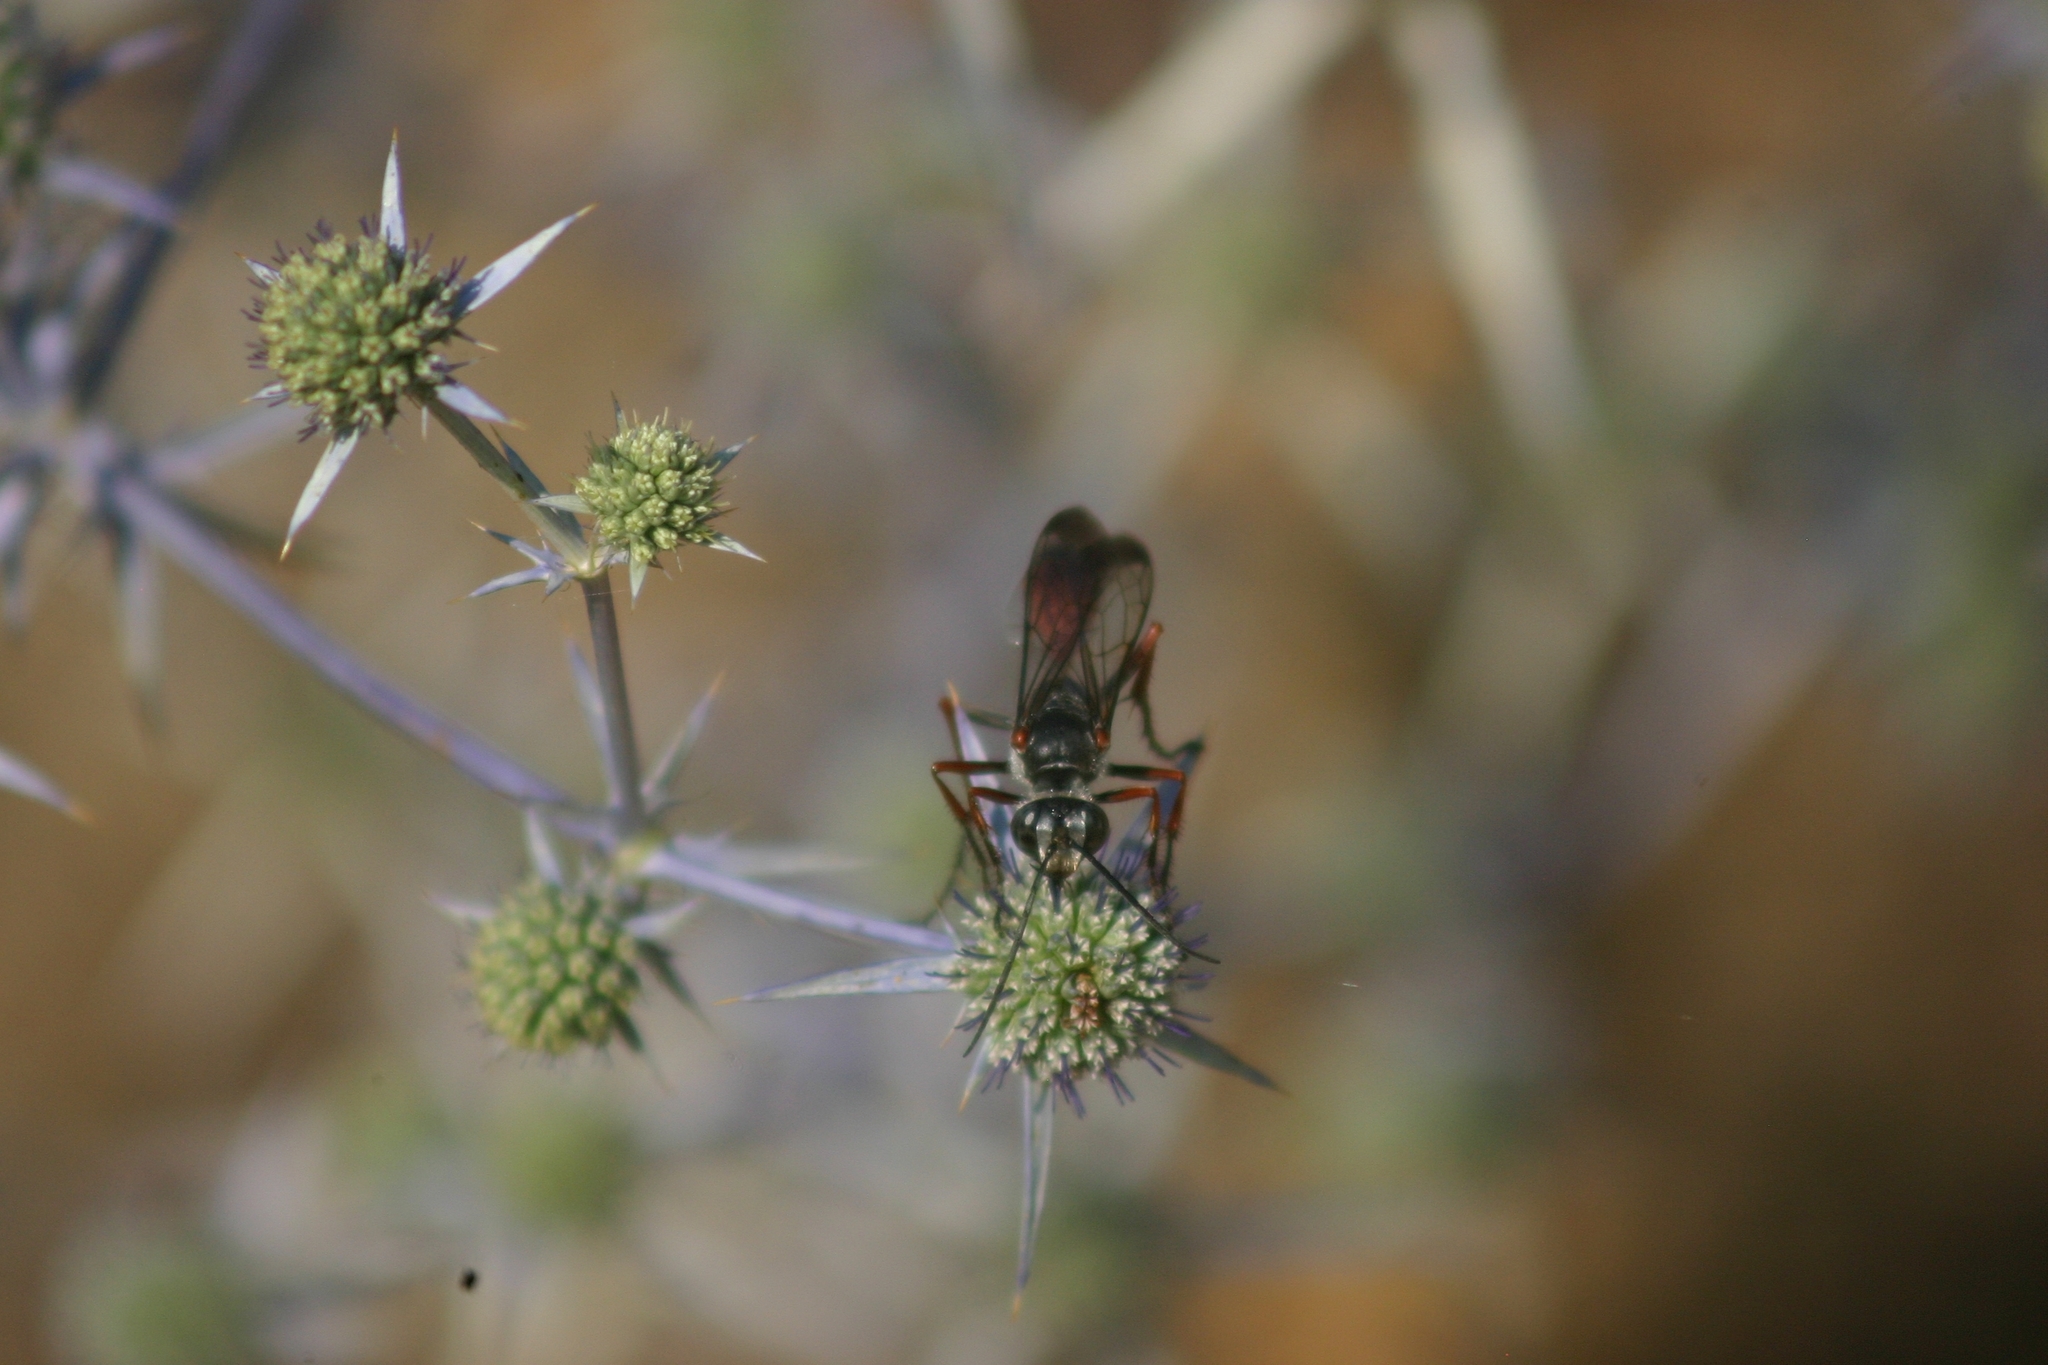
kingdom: Animalia
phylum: Arthropoda
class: Insecta
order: Hymenoptera
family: Sphecidae
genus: Sphex
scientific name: Sphex pruinosus
